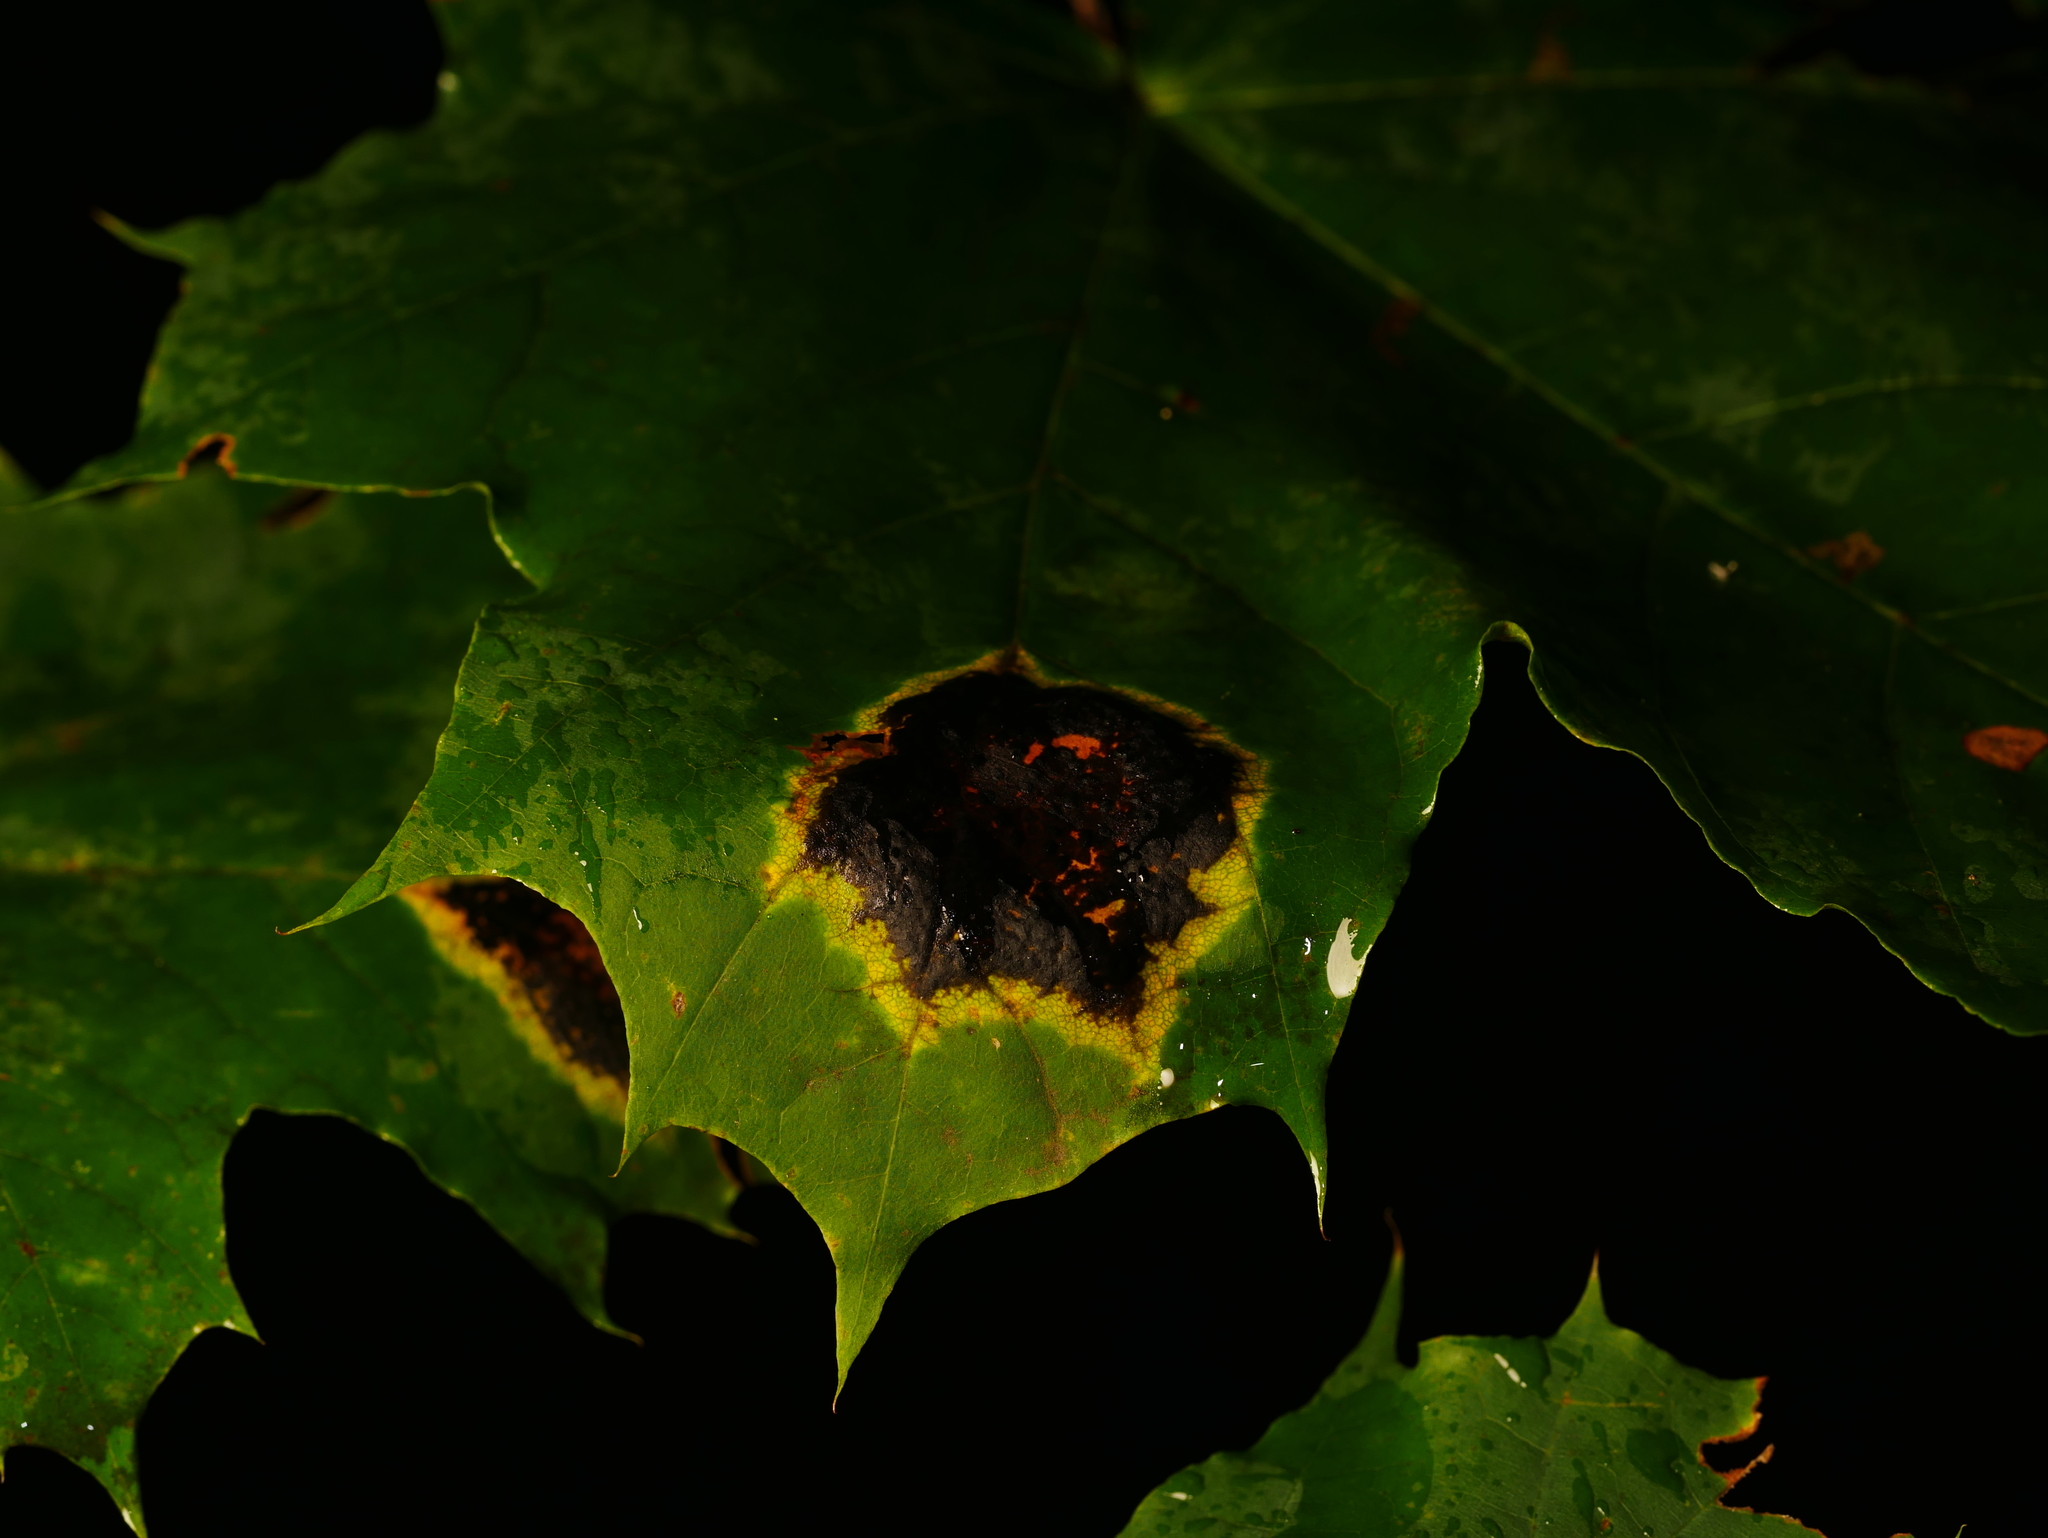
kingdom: Fungi
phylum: Ascomycota
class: Leotiomycetes
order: Rhytismatales
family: Rhytismataceae
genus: Rhytisma
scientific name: Rhytisma acerinum
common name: European tar spot
